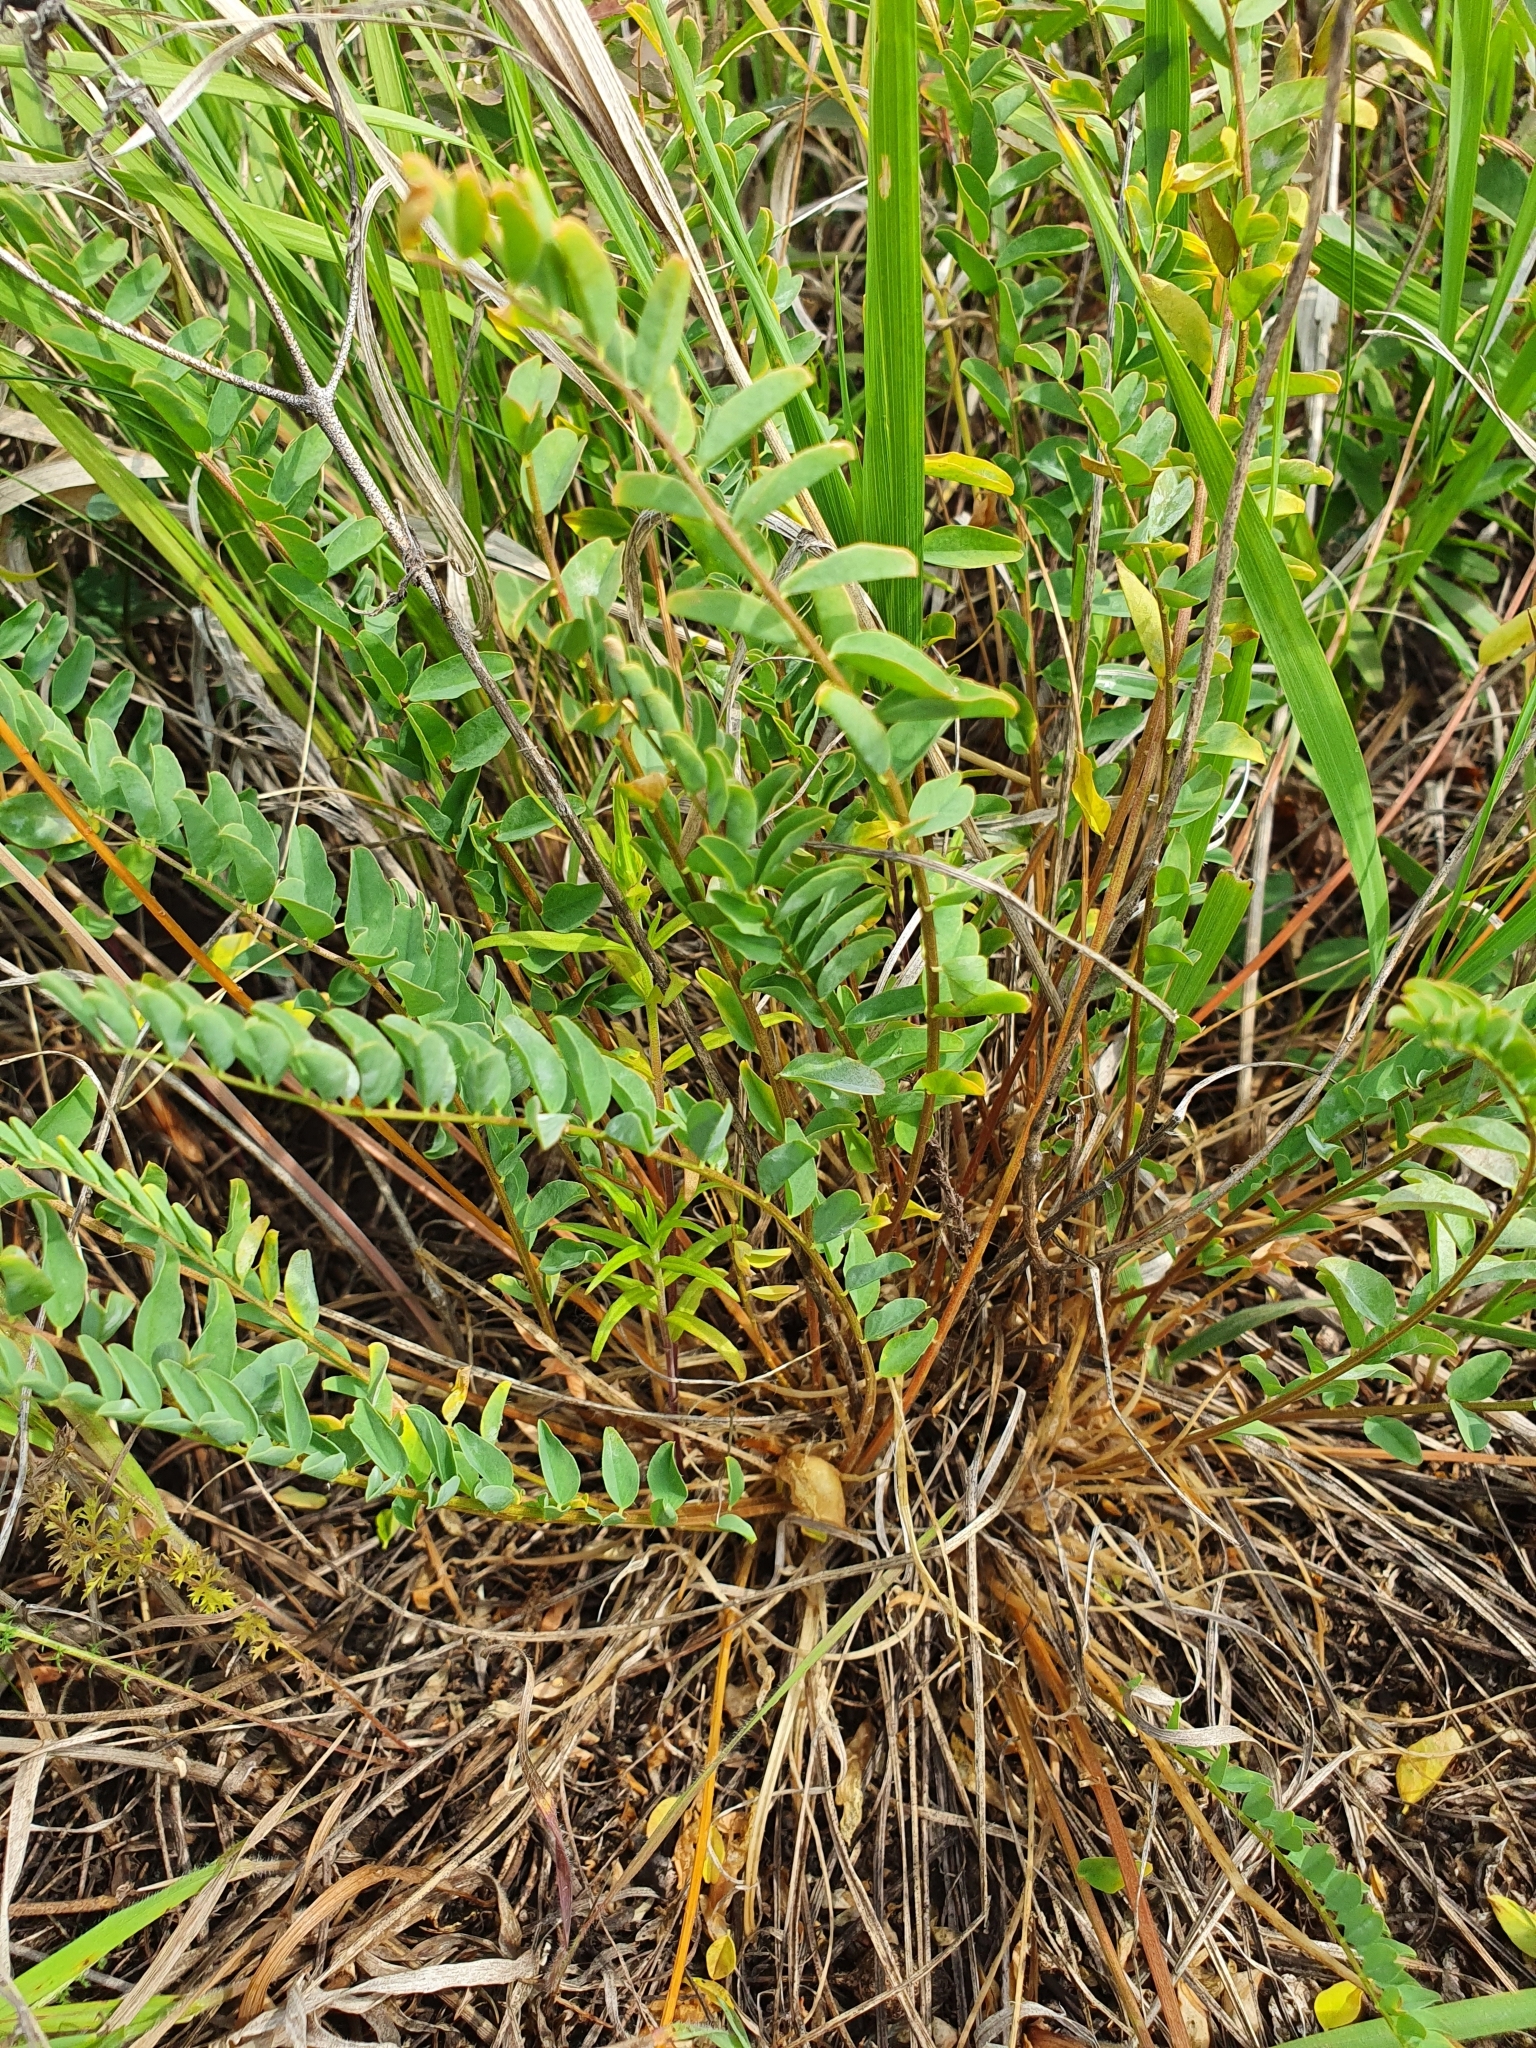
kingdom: Plantae
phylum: Tracheophyta
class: Magnoliopsida
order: Fabales
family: Fabaceae
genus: Astragalus
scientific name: Astragalus wolgensis
